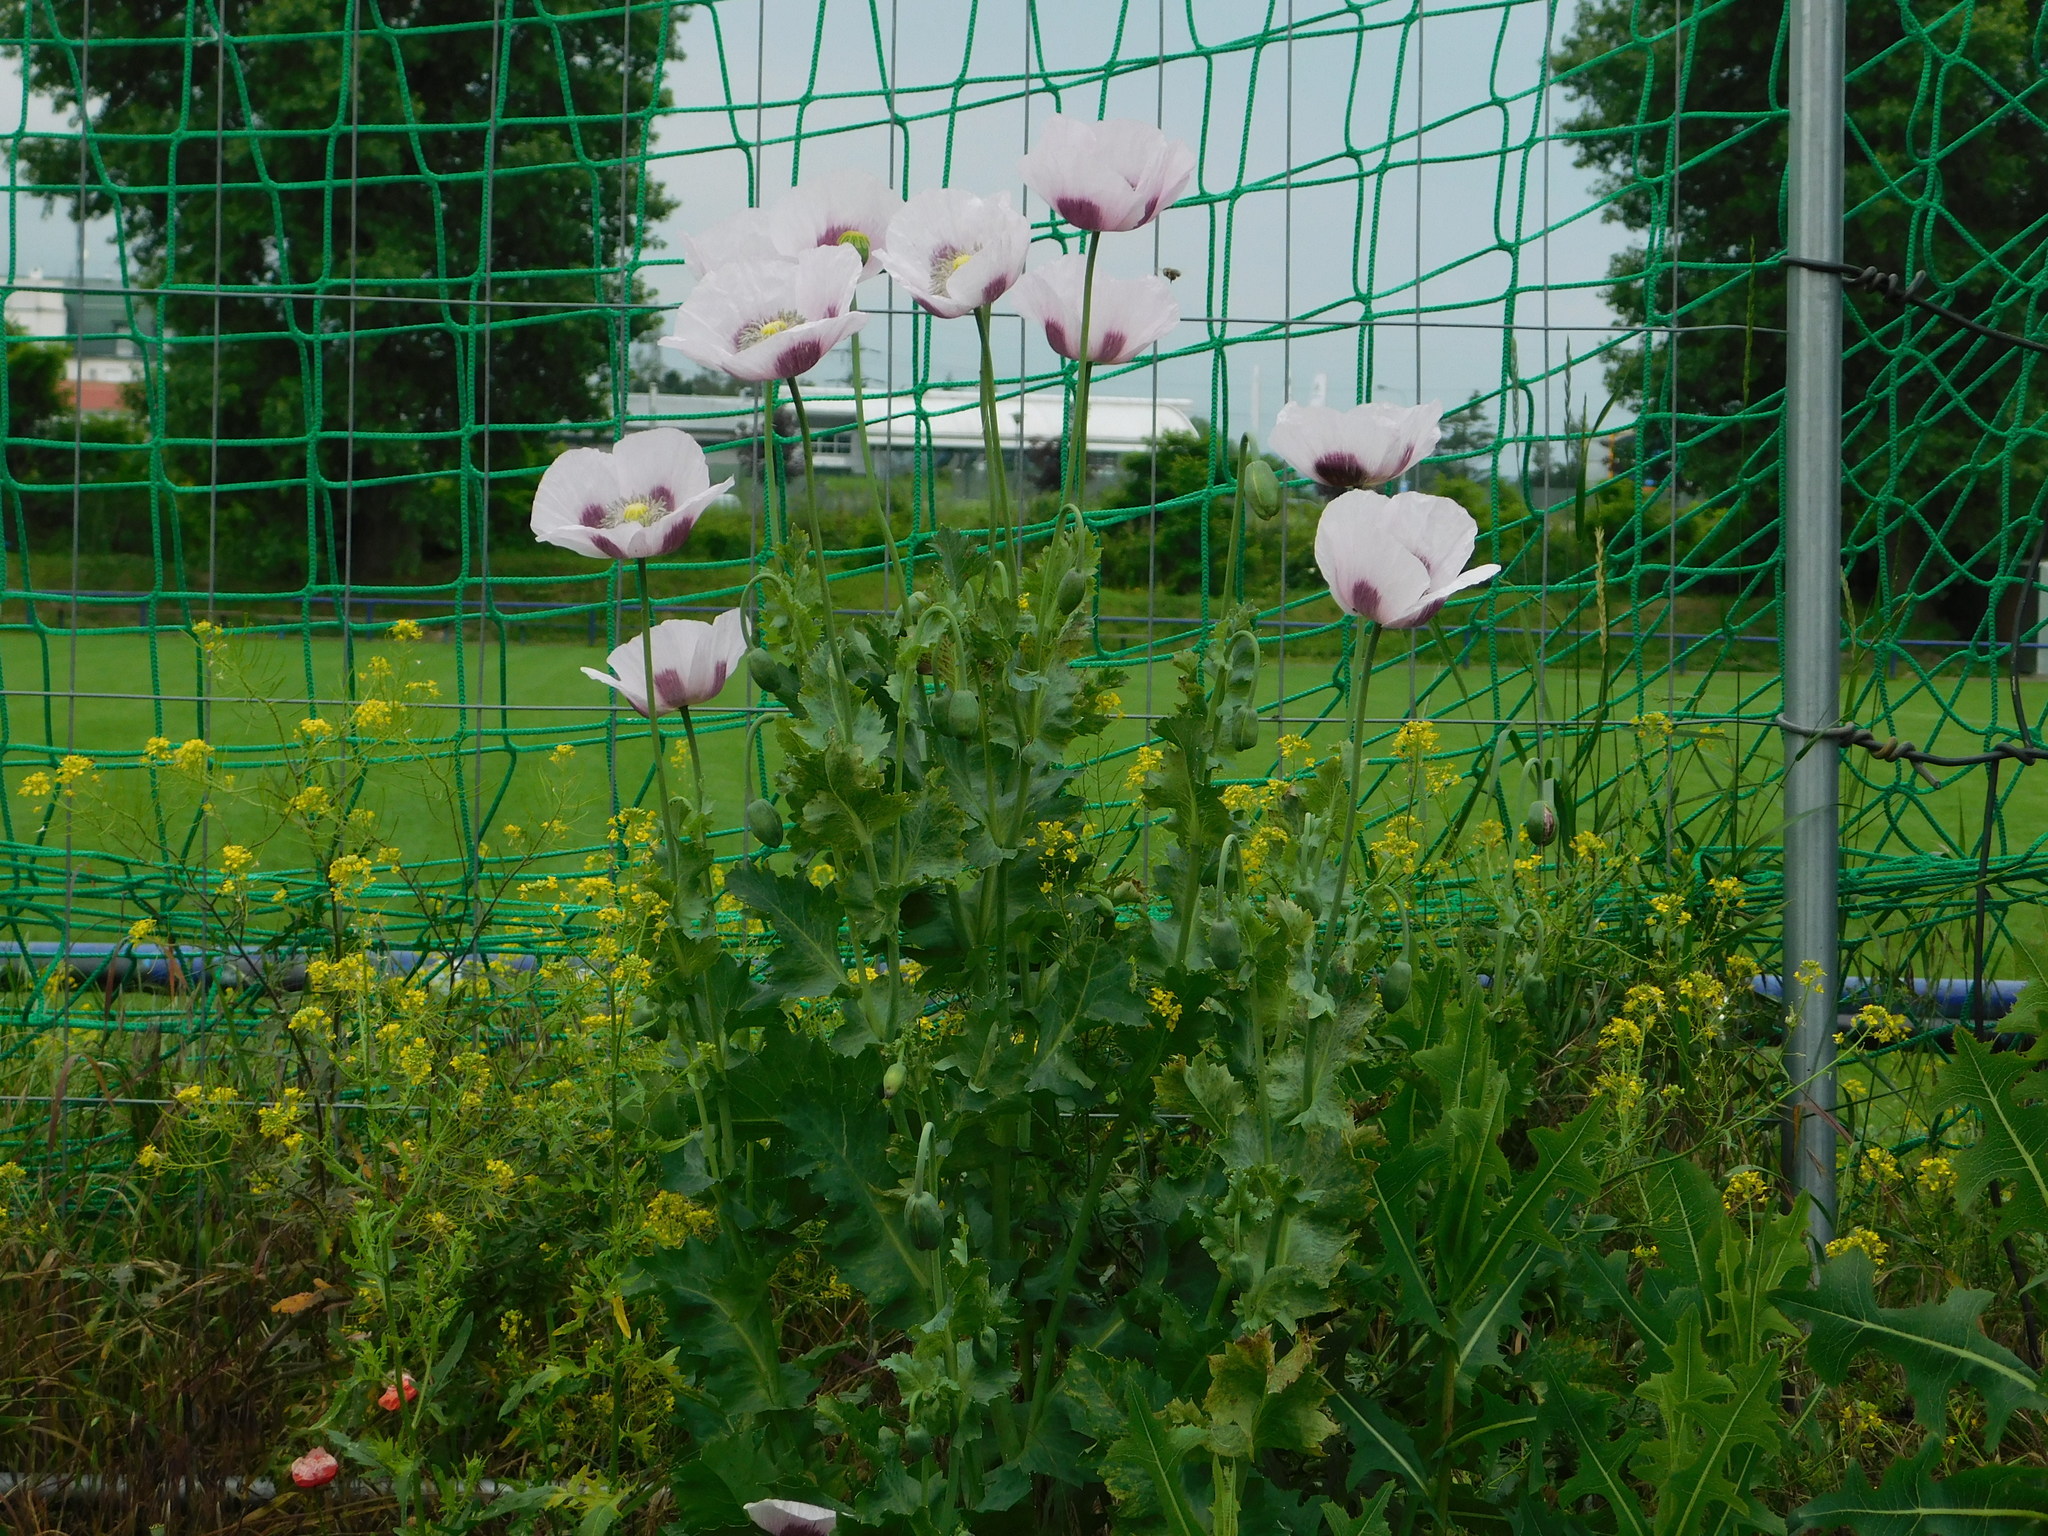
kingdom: Plantae
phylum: Tracheophyta
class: Magnoliopsida
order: Ranunculales
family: Papaveraceae
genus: Papaver
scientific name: Papaver somniferum
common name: Opium poppy
